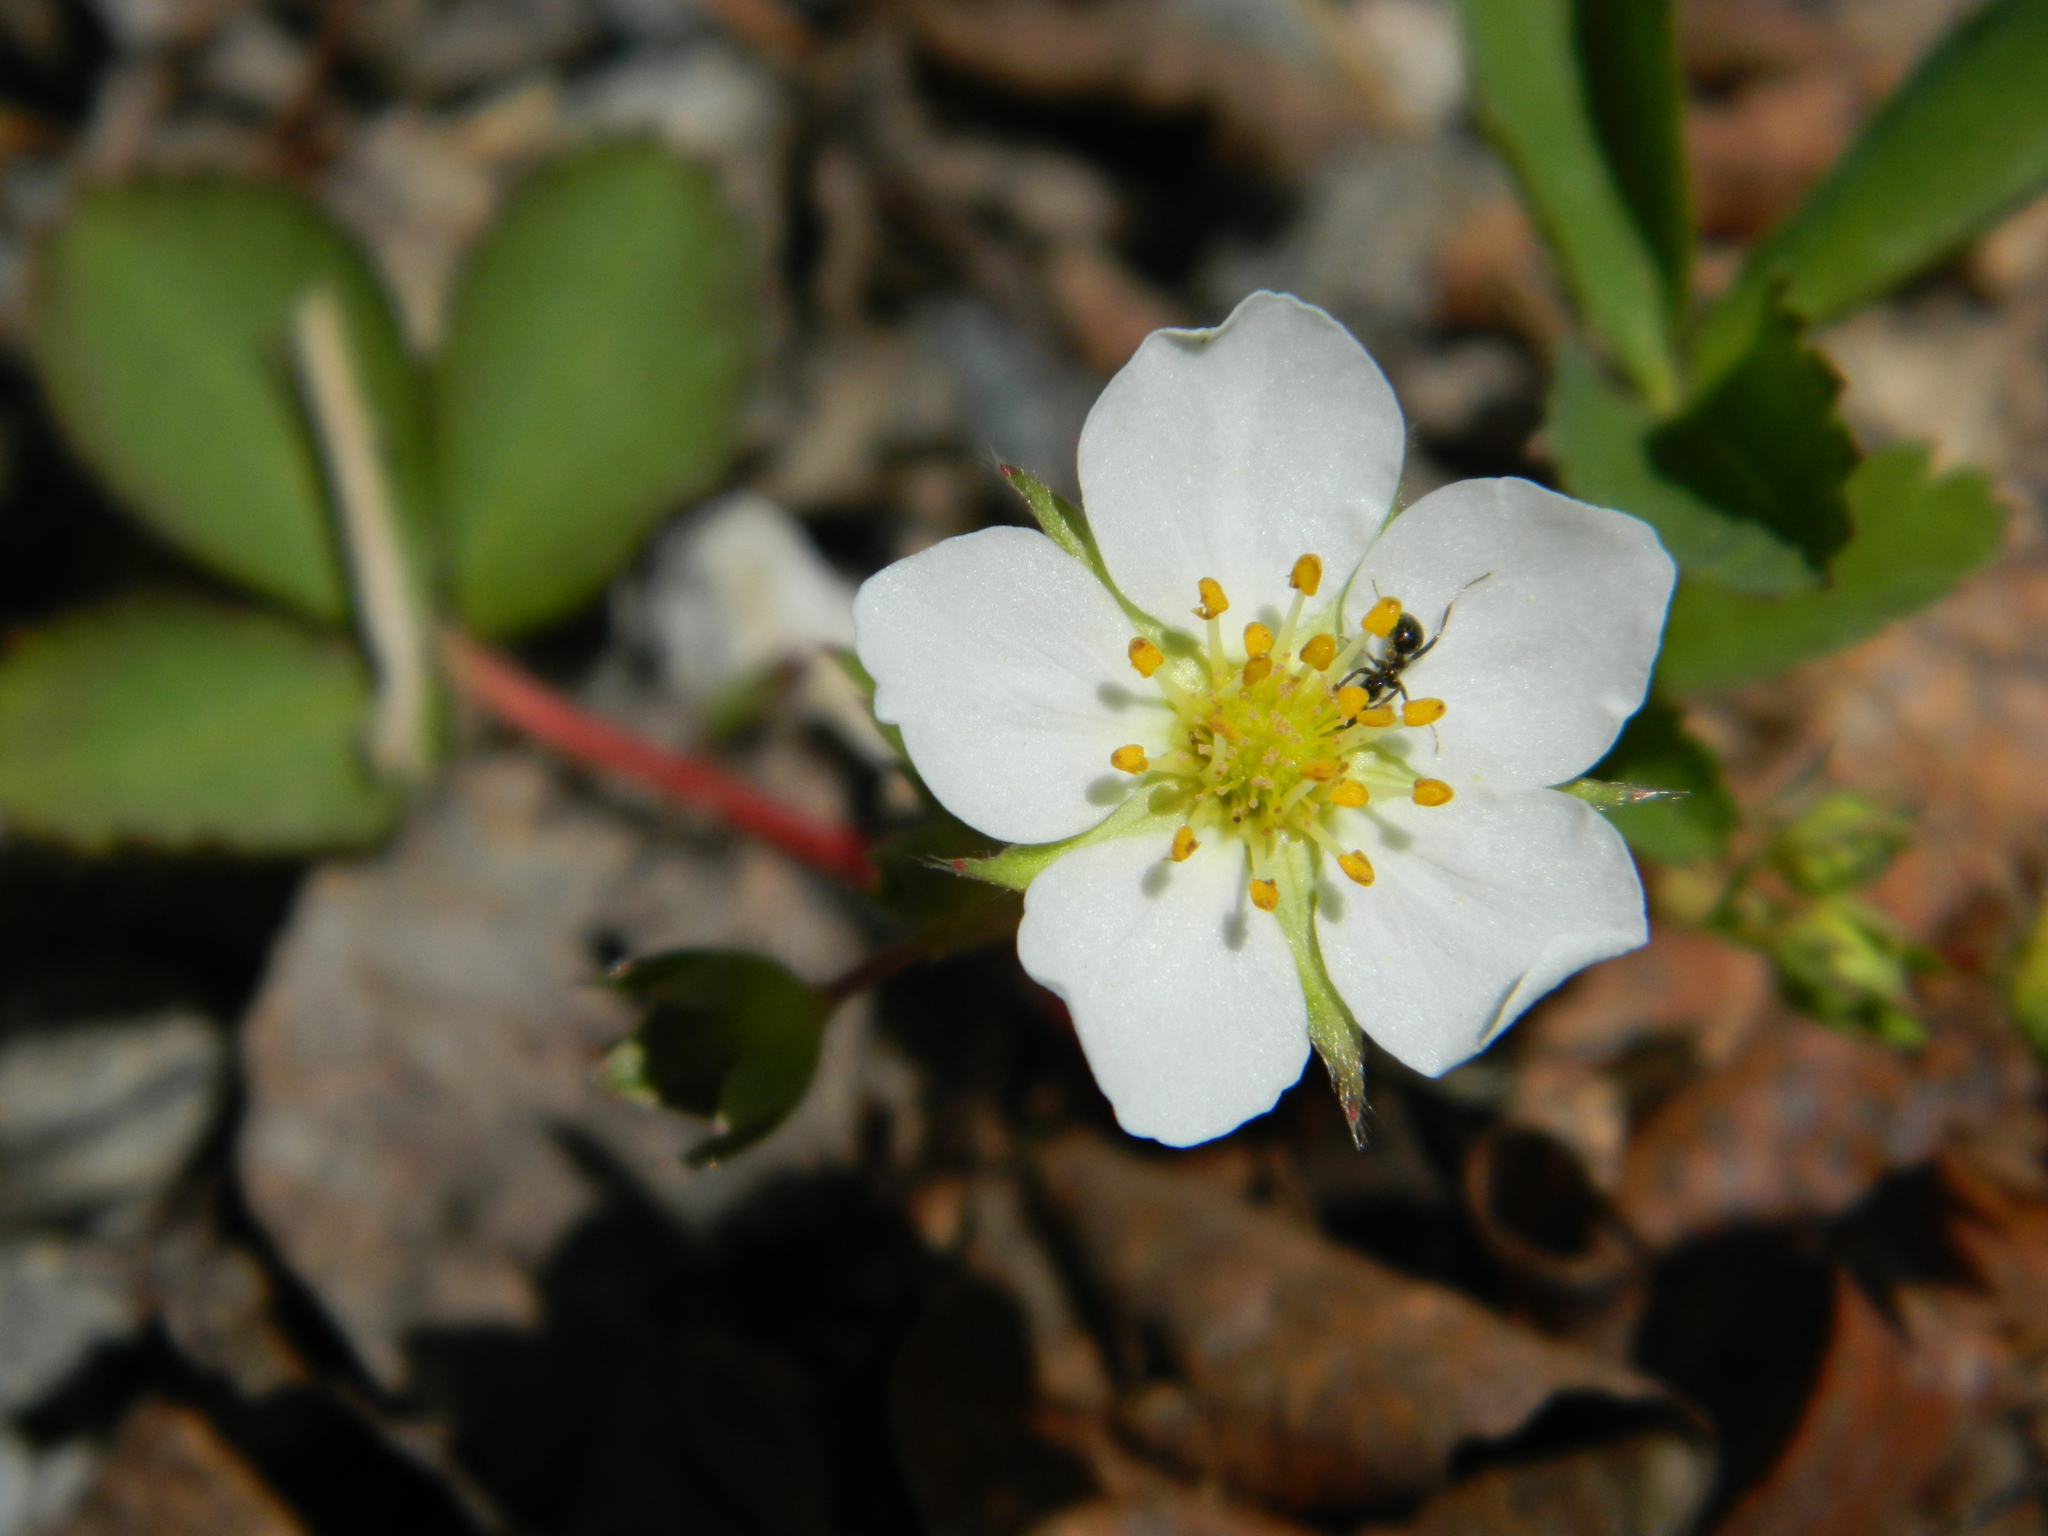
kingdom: Plantae
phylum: Tracheophyta
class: Magnoliopsida
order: Rosales
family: Rosaceae
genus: Fragaria
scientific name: Fragaria virginiana
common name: Thickleaved wild strawberry
